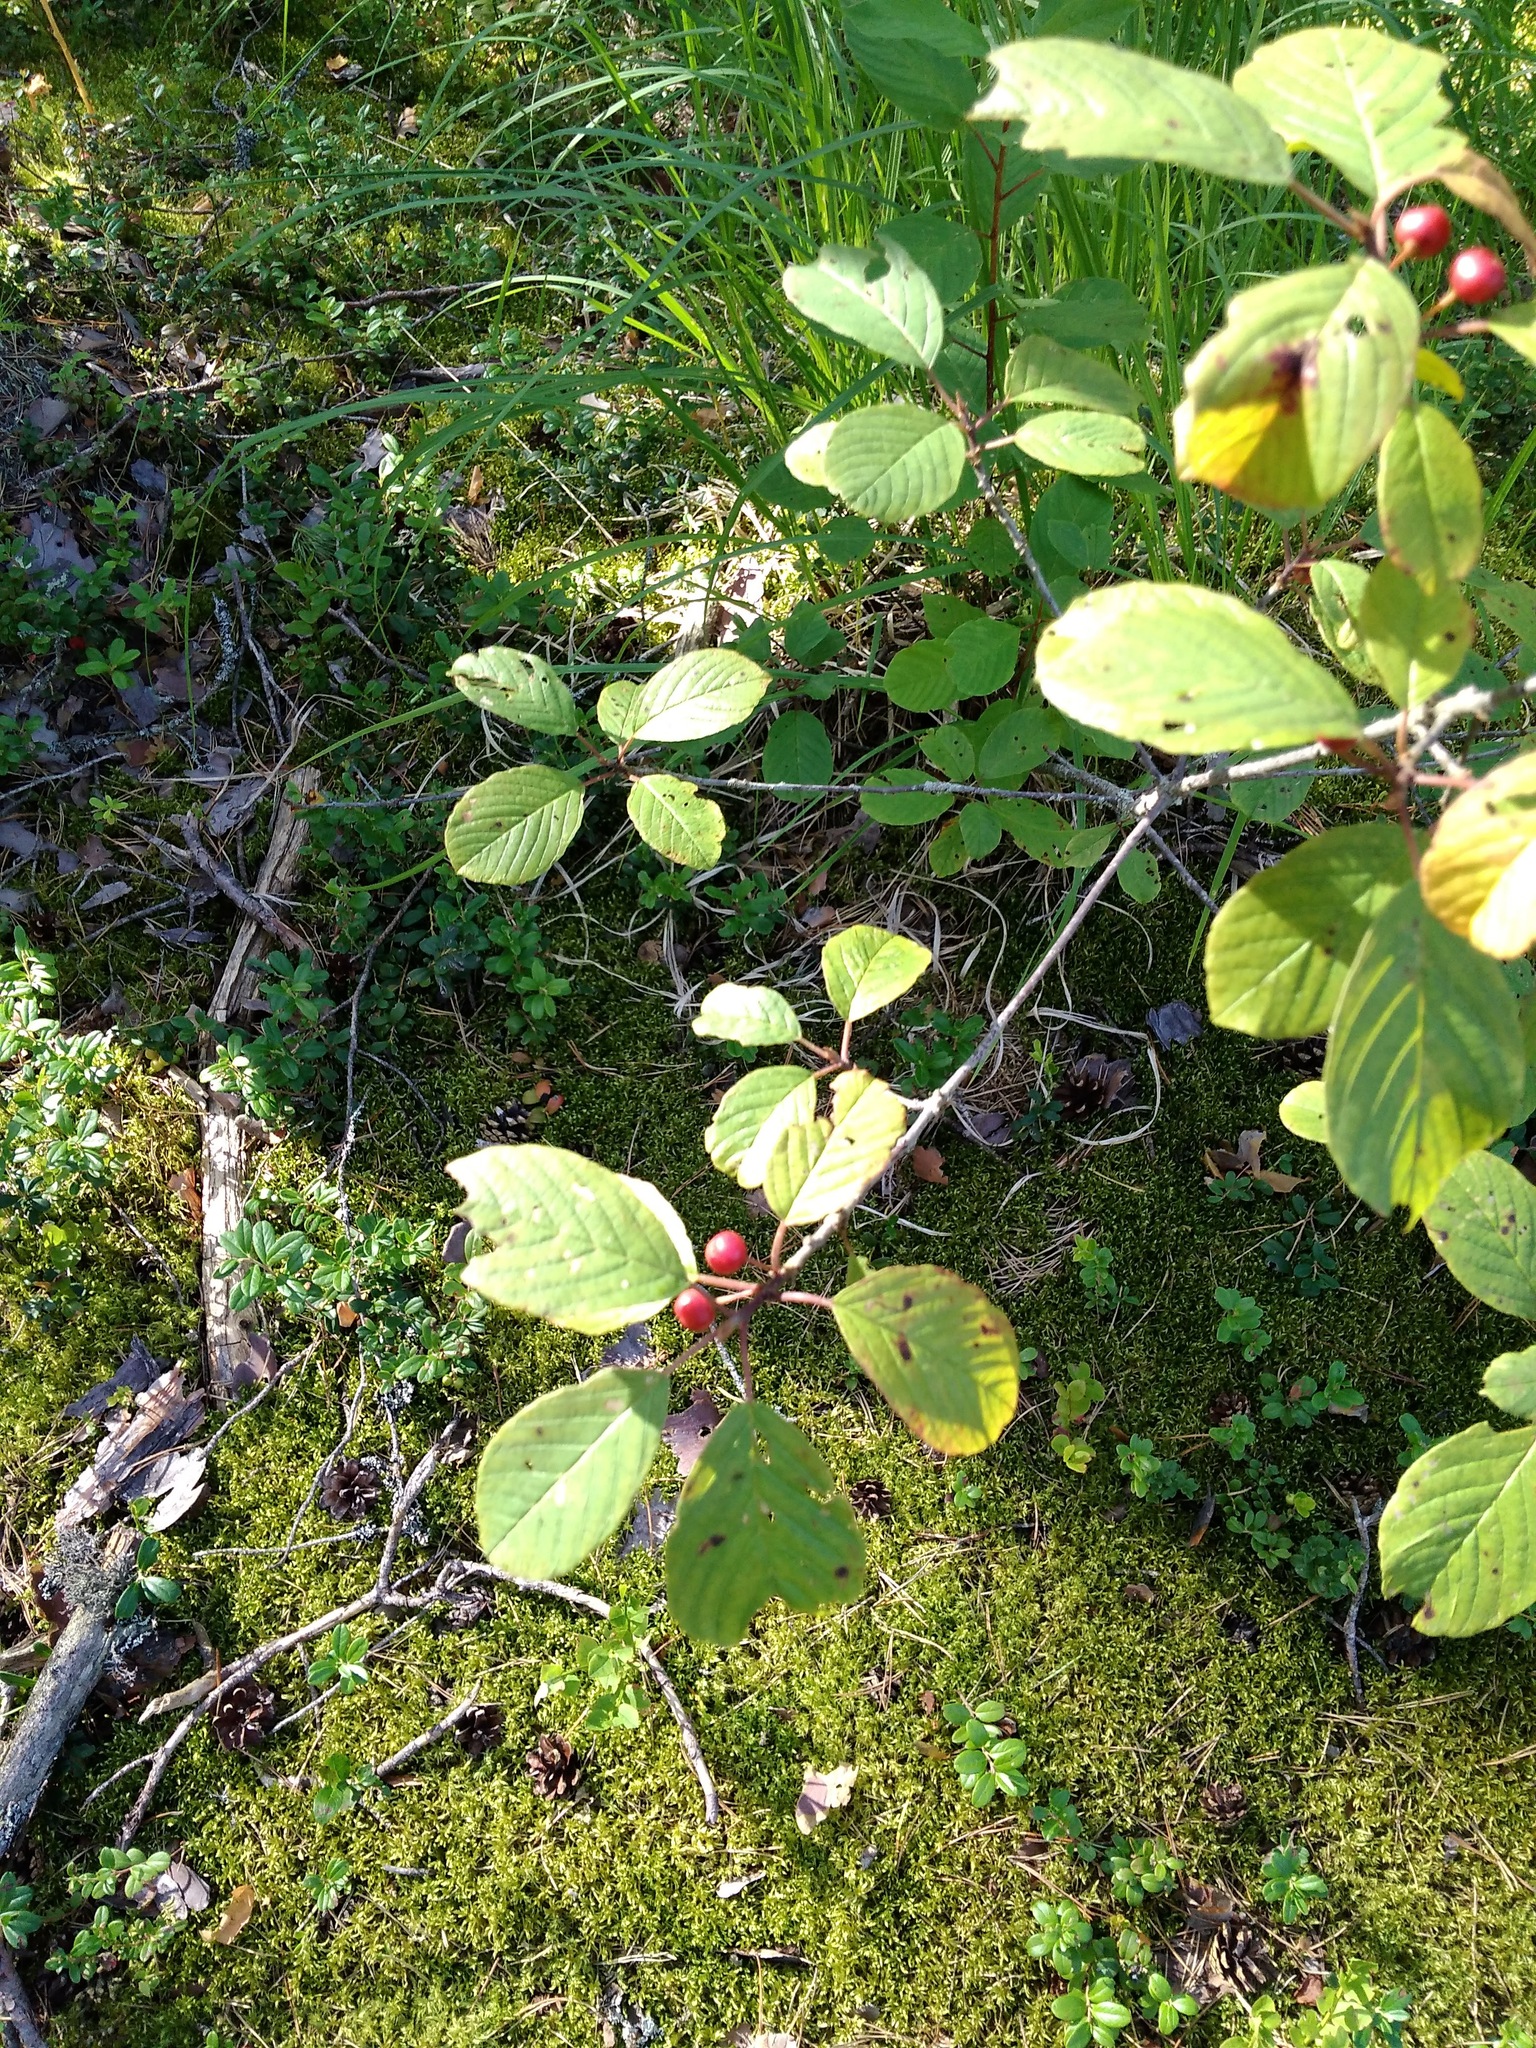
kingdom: Plantae
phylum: Tracheophyta
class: Magnoliopsida
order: Rosales
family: Rhamnaceae
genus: Frangula
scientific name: Frangula alnus
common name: Alder buckthorn
